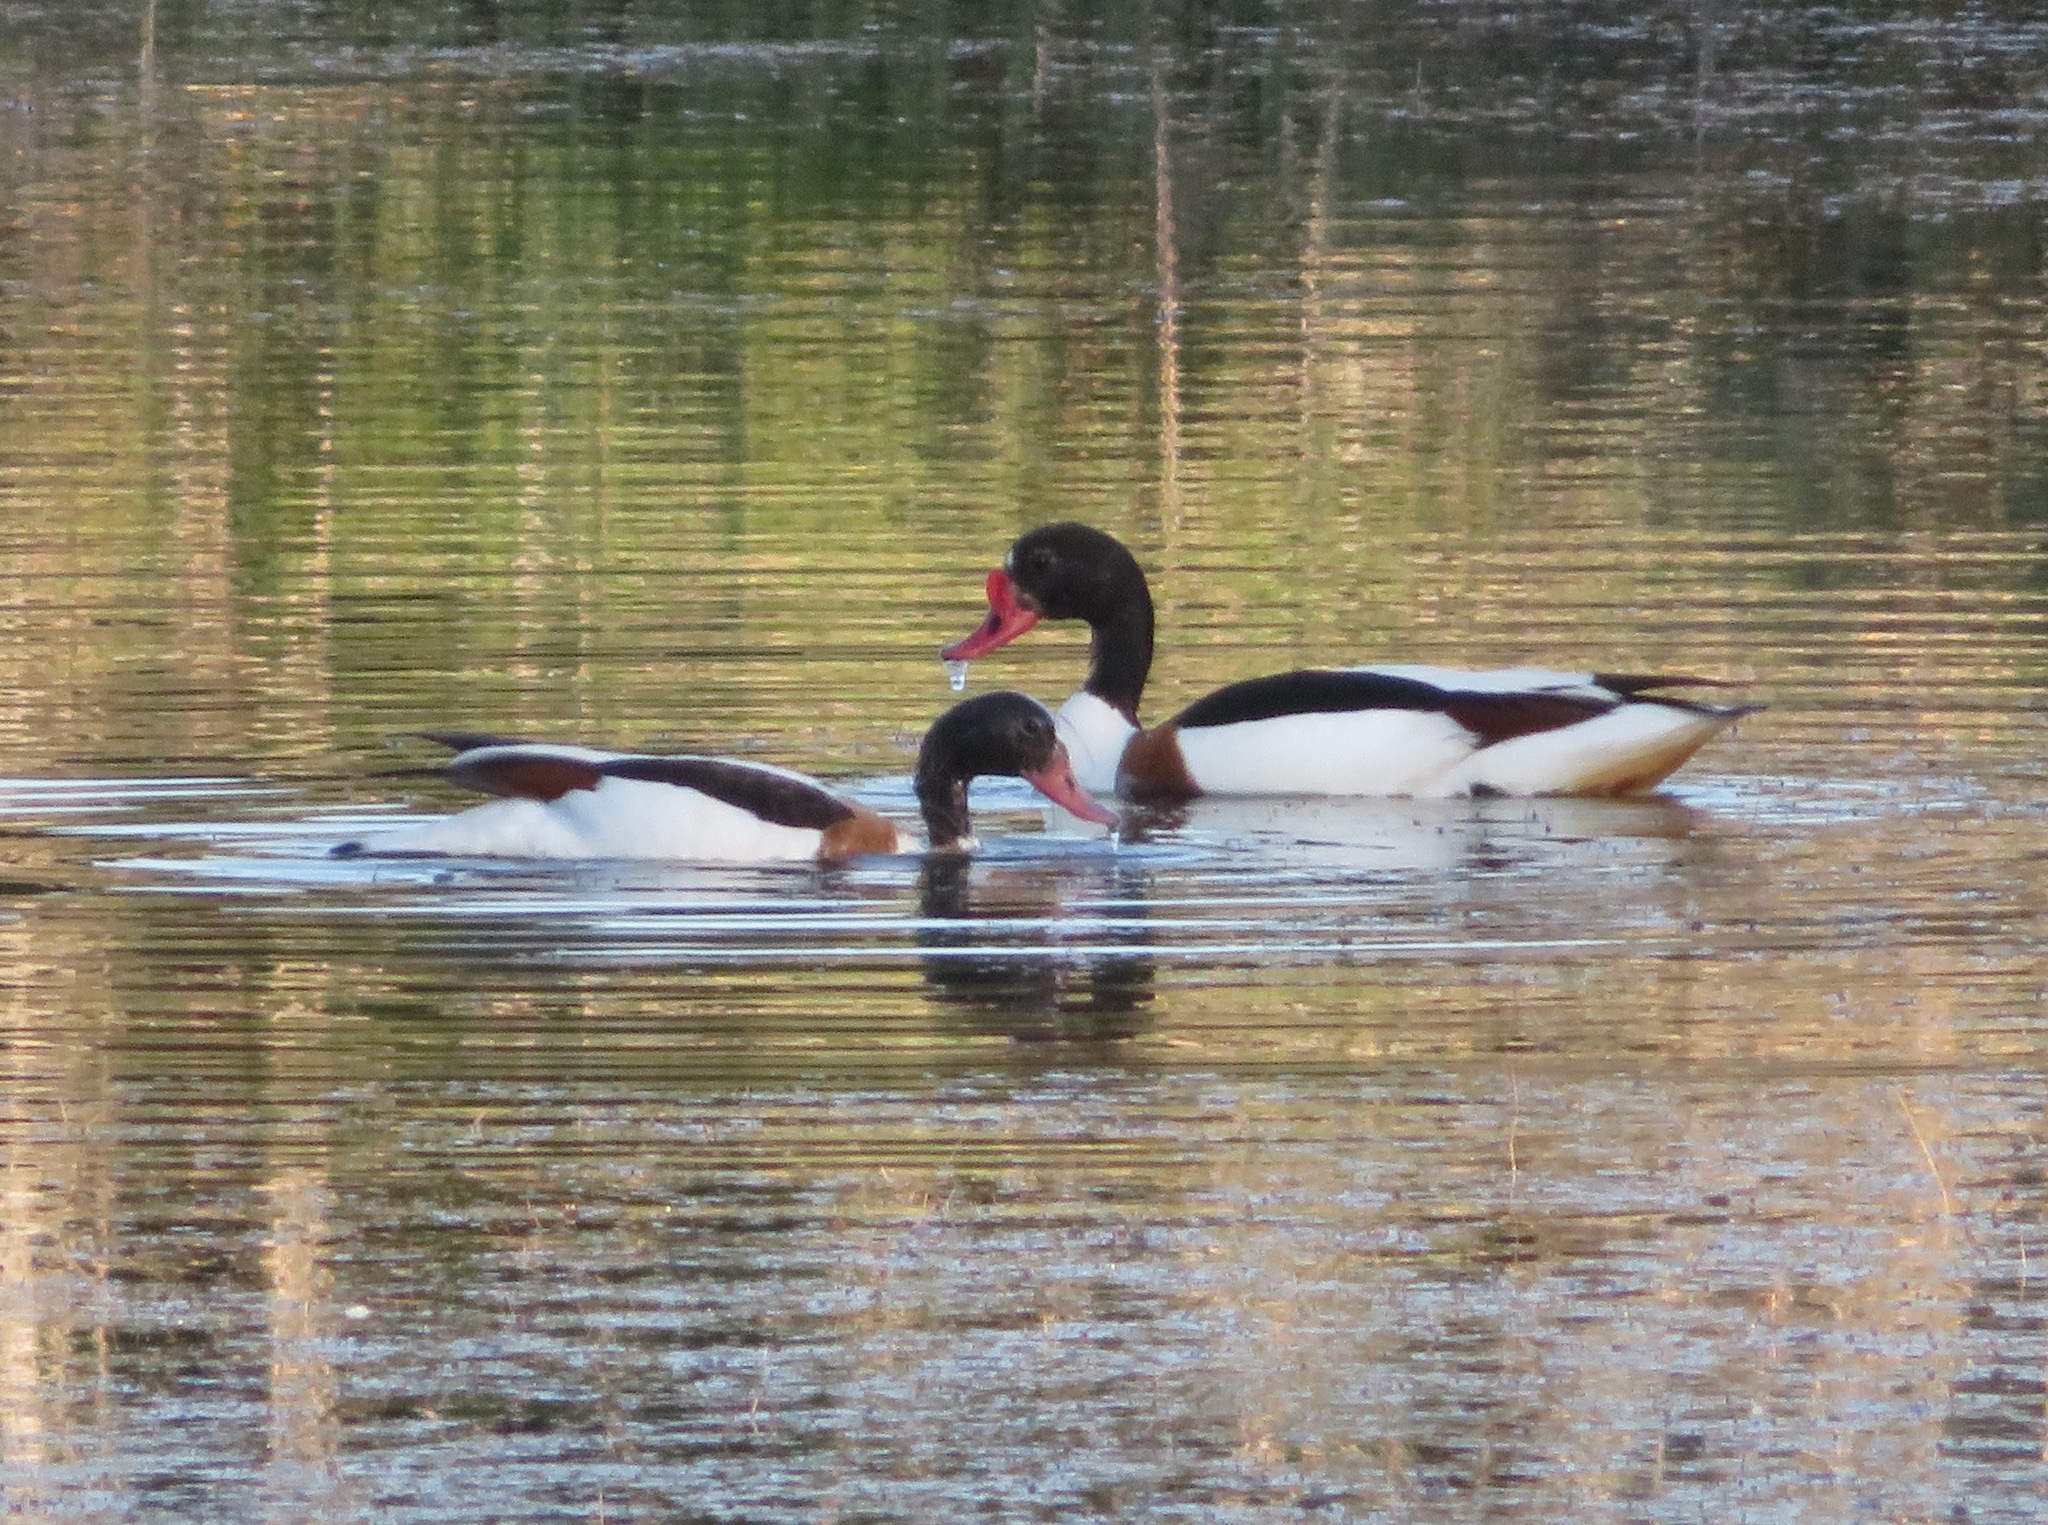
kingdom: Animalia
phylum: Chordata
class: Aves
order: Anseriformes
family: Anatidae
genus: Tadorna
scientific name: Tadorna tadorna
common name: Common shelduck
